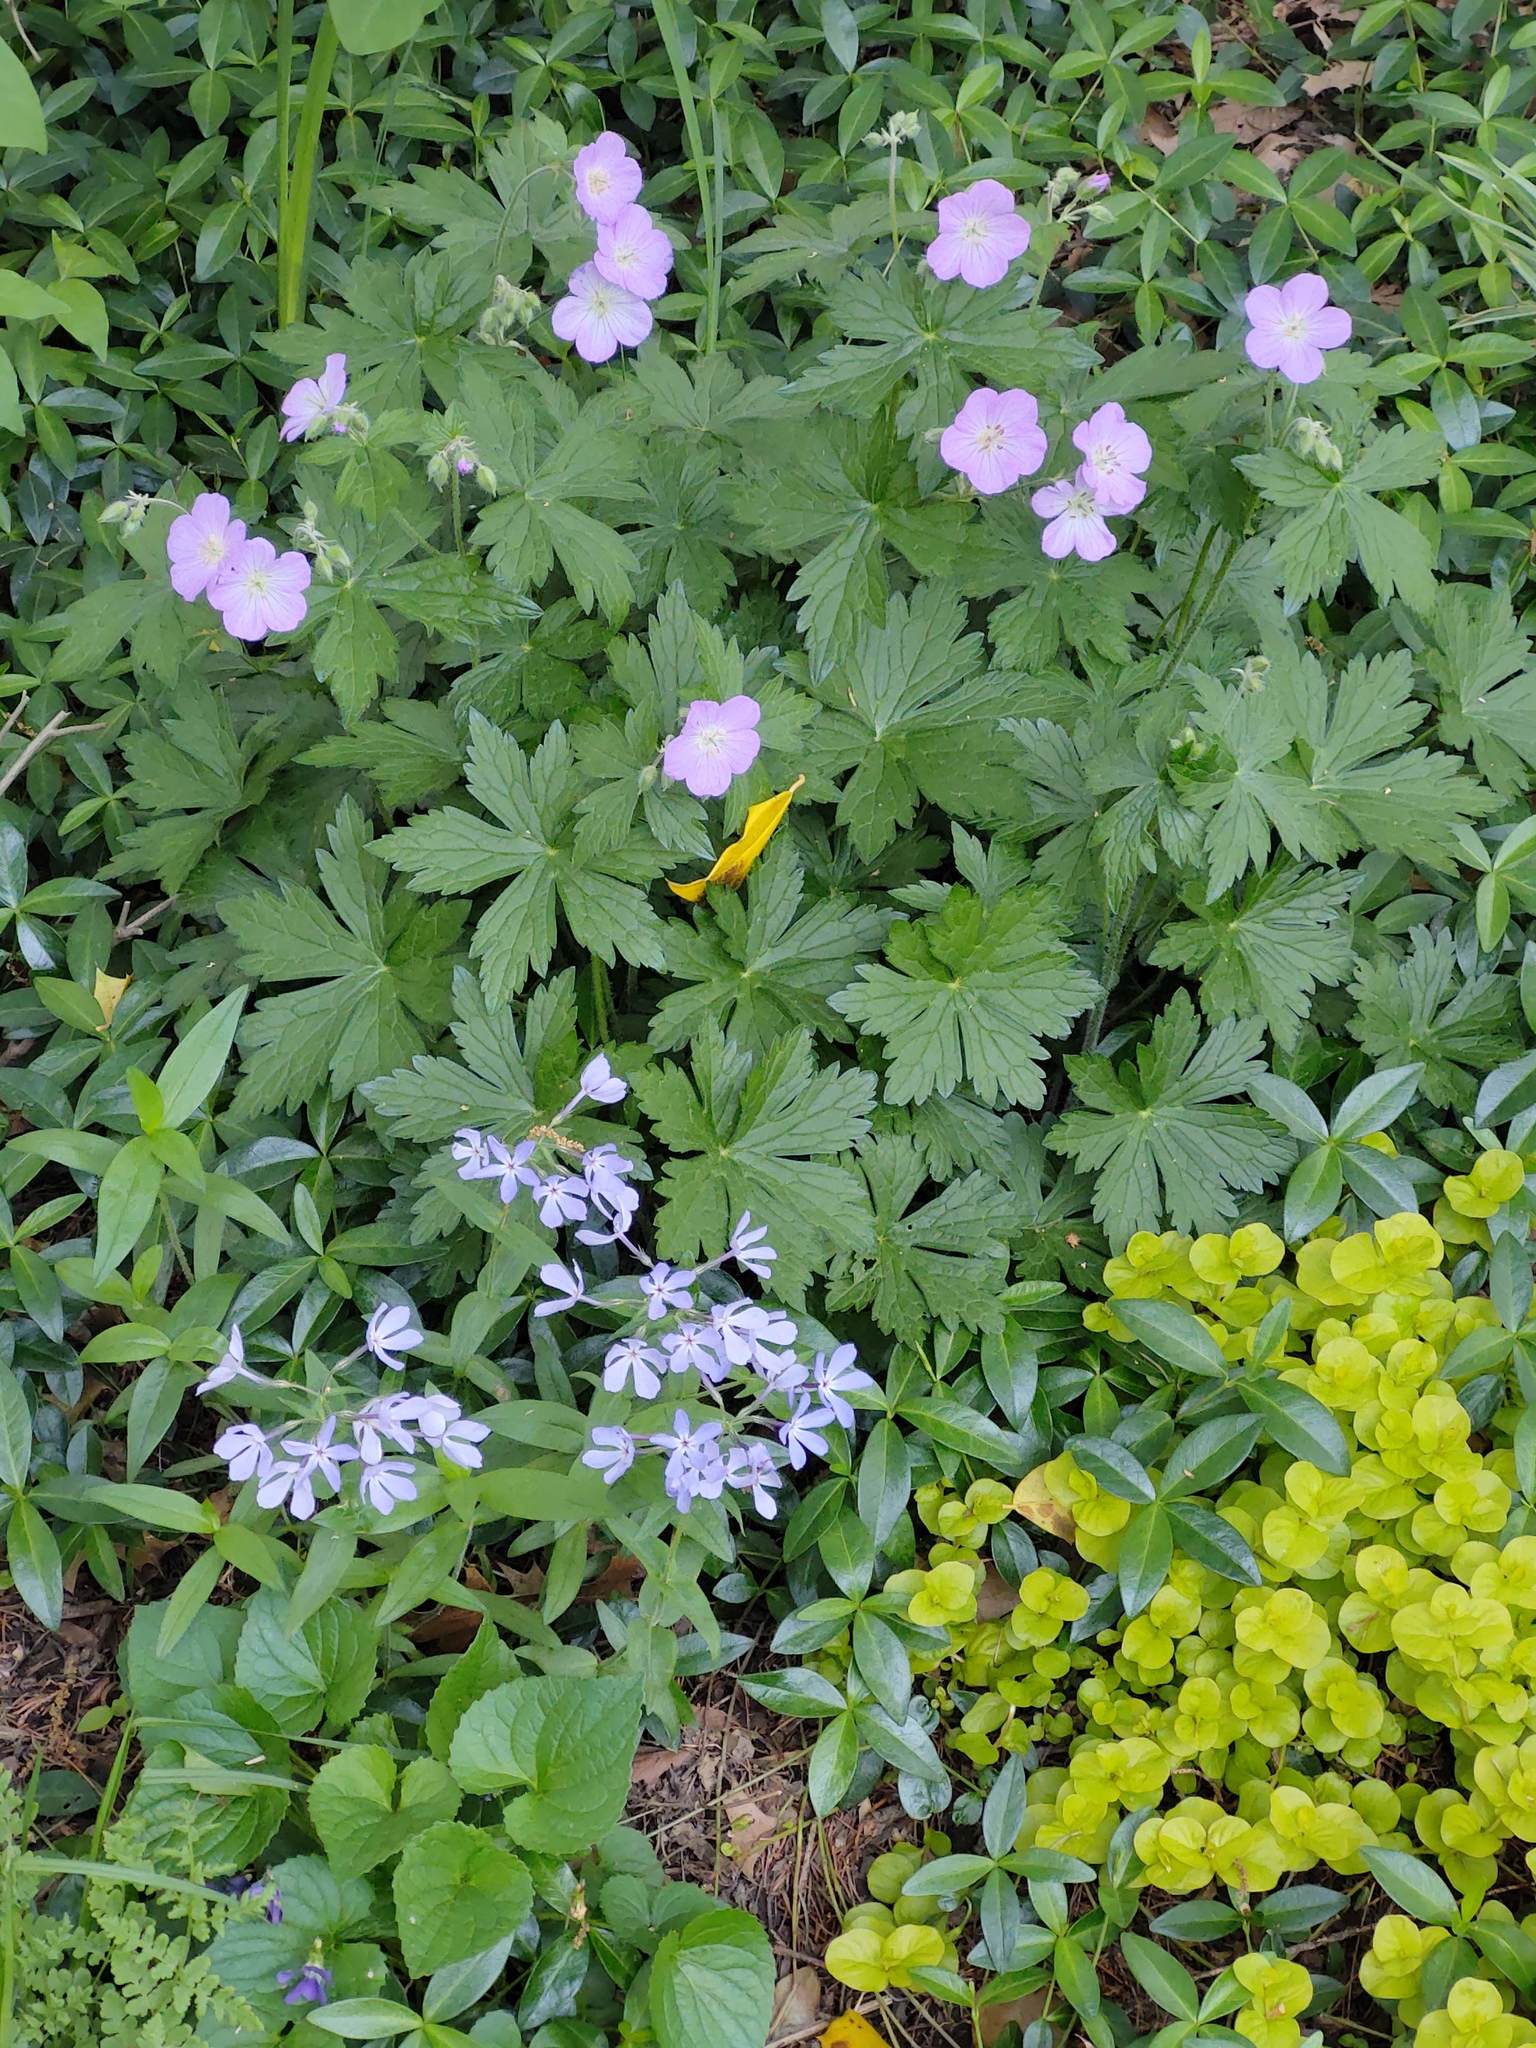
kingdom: Plantae
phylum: Tracheophyta
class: Magnoliopsida
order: Geraniales
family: Geraniaceae
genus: Geranium
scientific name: Geranium maculatum
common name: Spotted geranium
